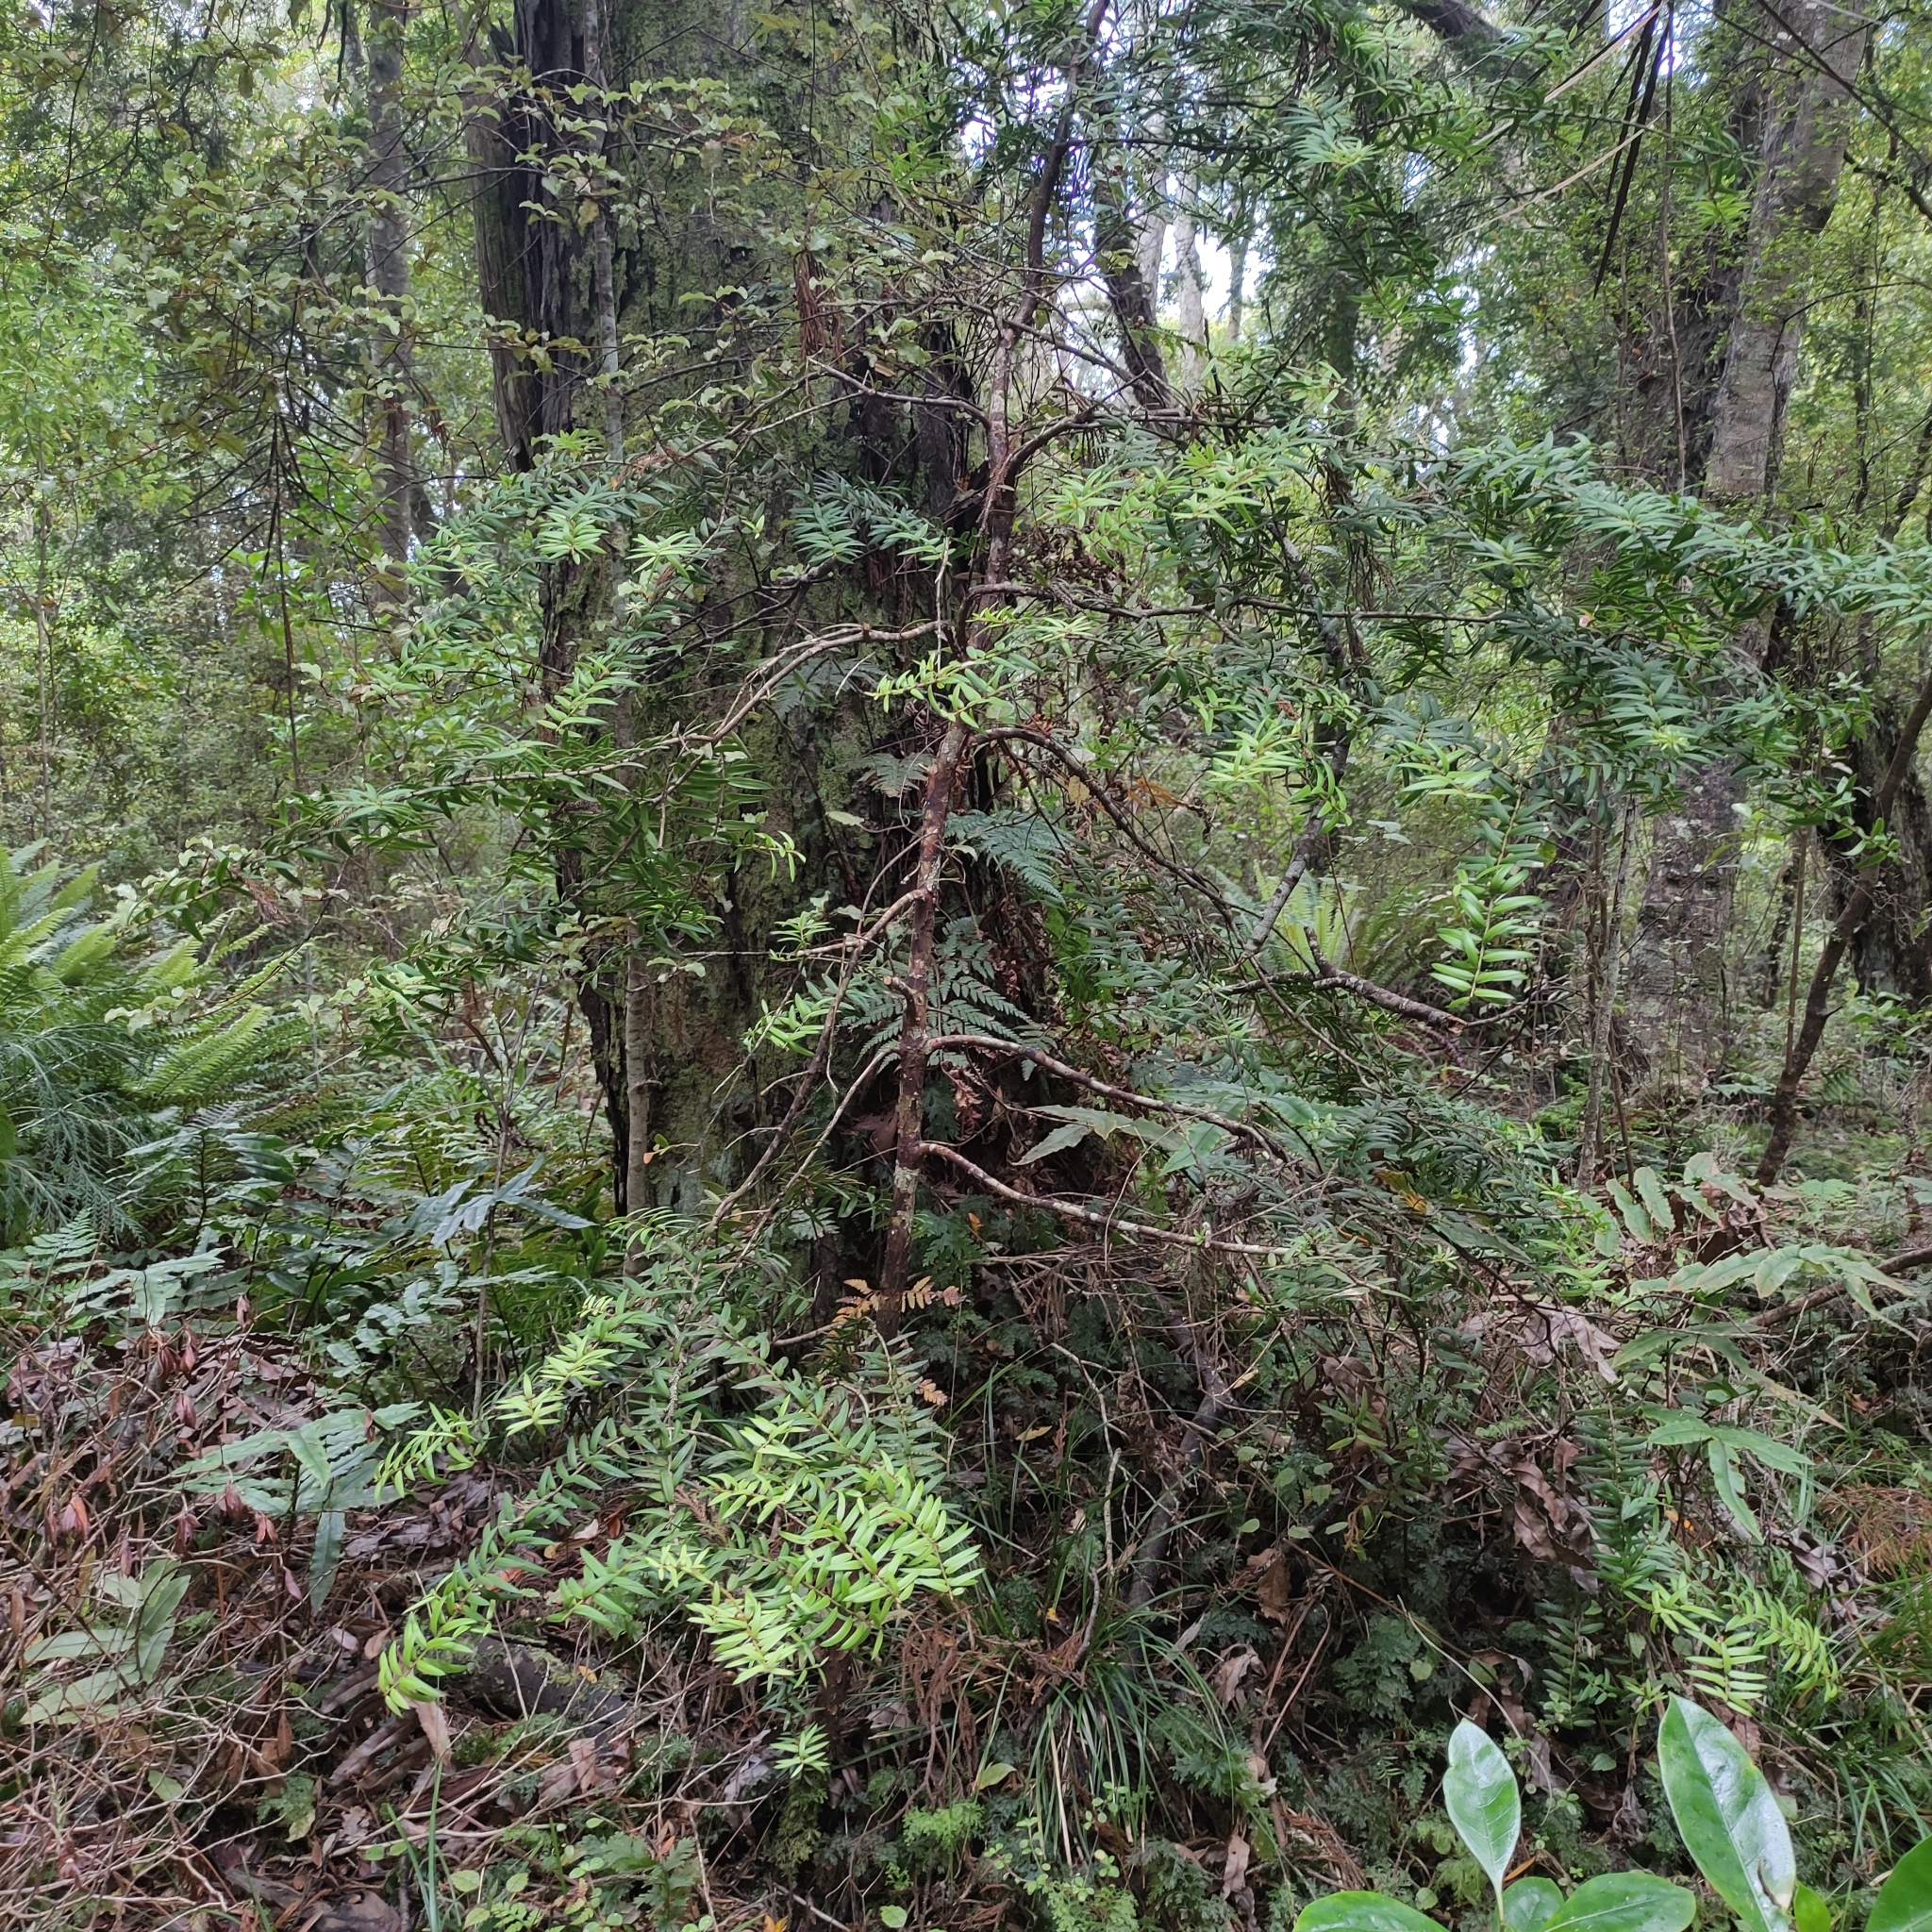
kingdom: Plantae
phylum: Tracheophyta
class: Pinopsida
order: Pinales
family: Podocarpaceae
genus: Podocarpus
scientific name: Podocarpus laetus
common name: Hall's totara
